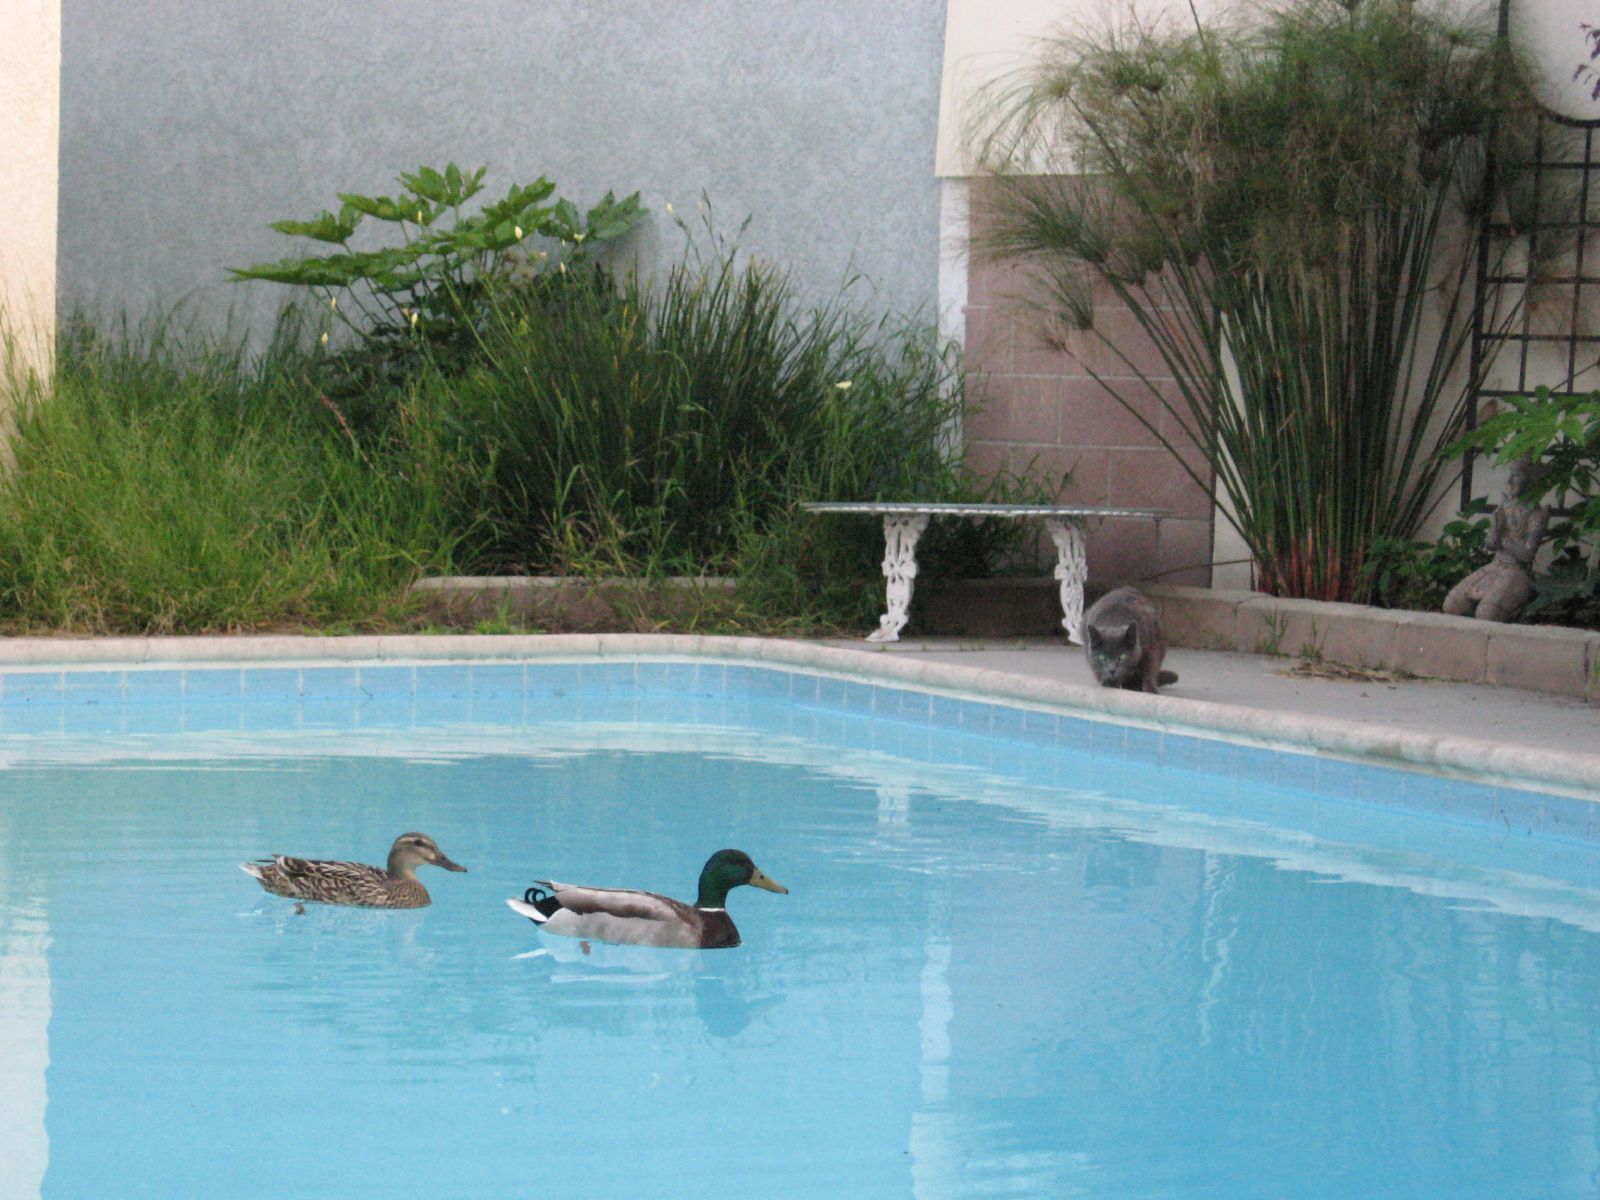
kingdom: Animalia
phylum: Chordata
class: Aves
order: Anseriformes
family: Anatidae
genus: Anas
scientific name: Anas platyrhynchos
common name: Mallard
